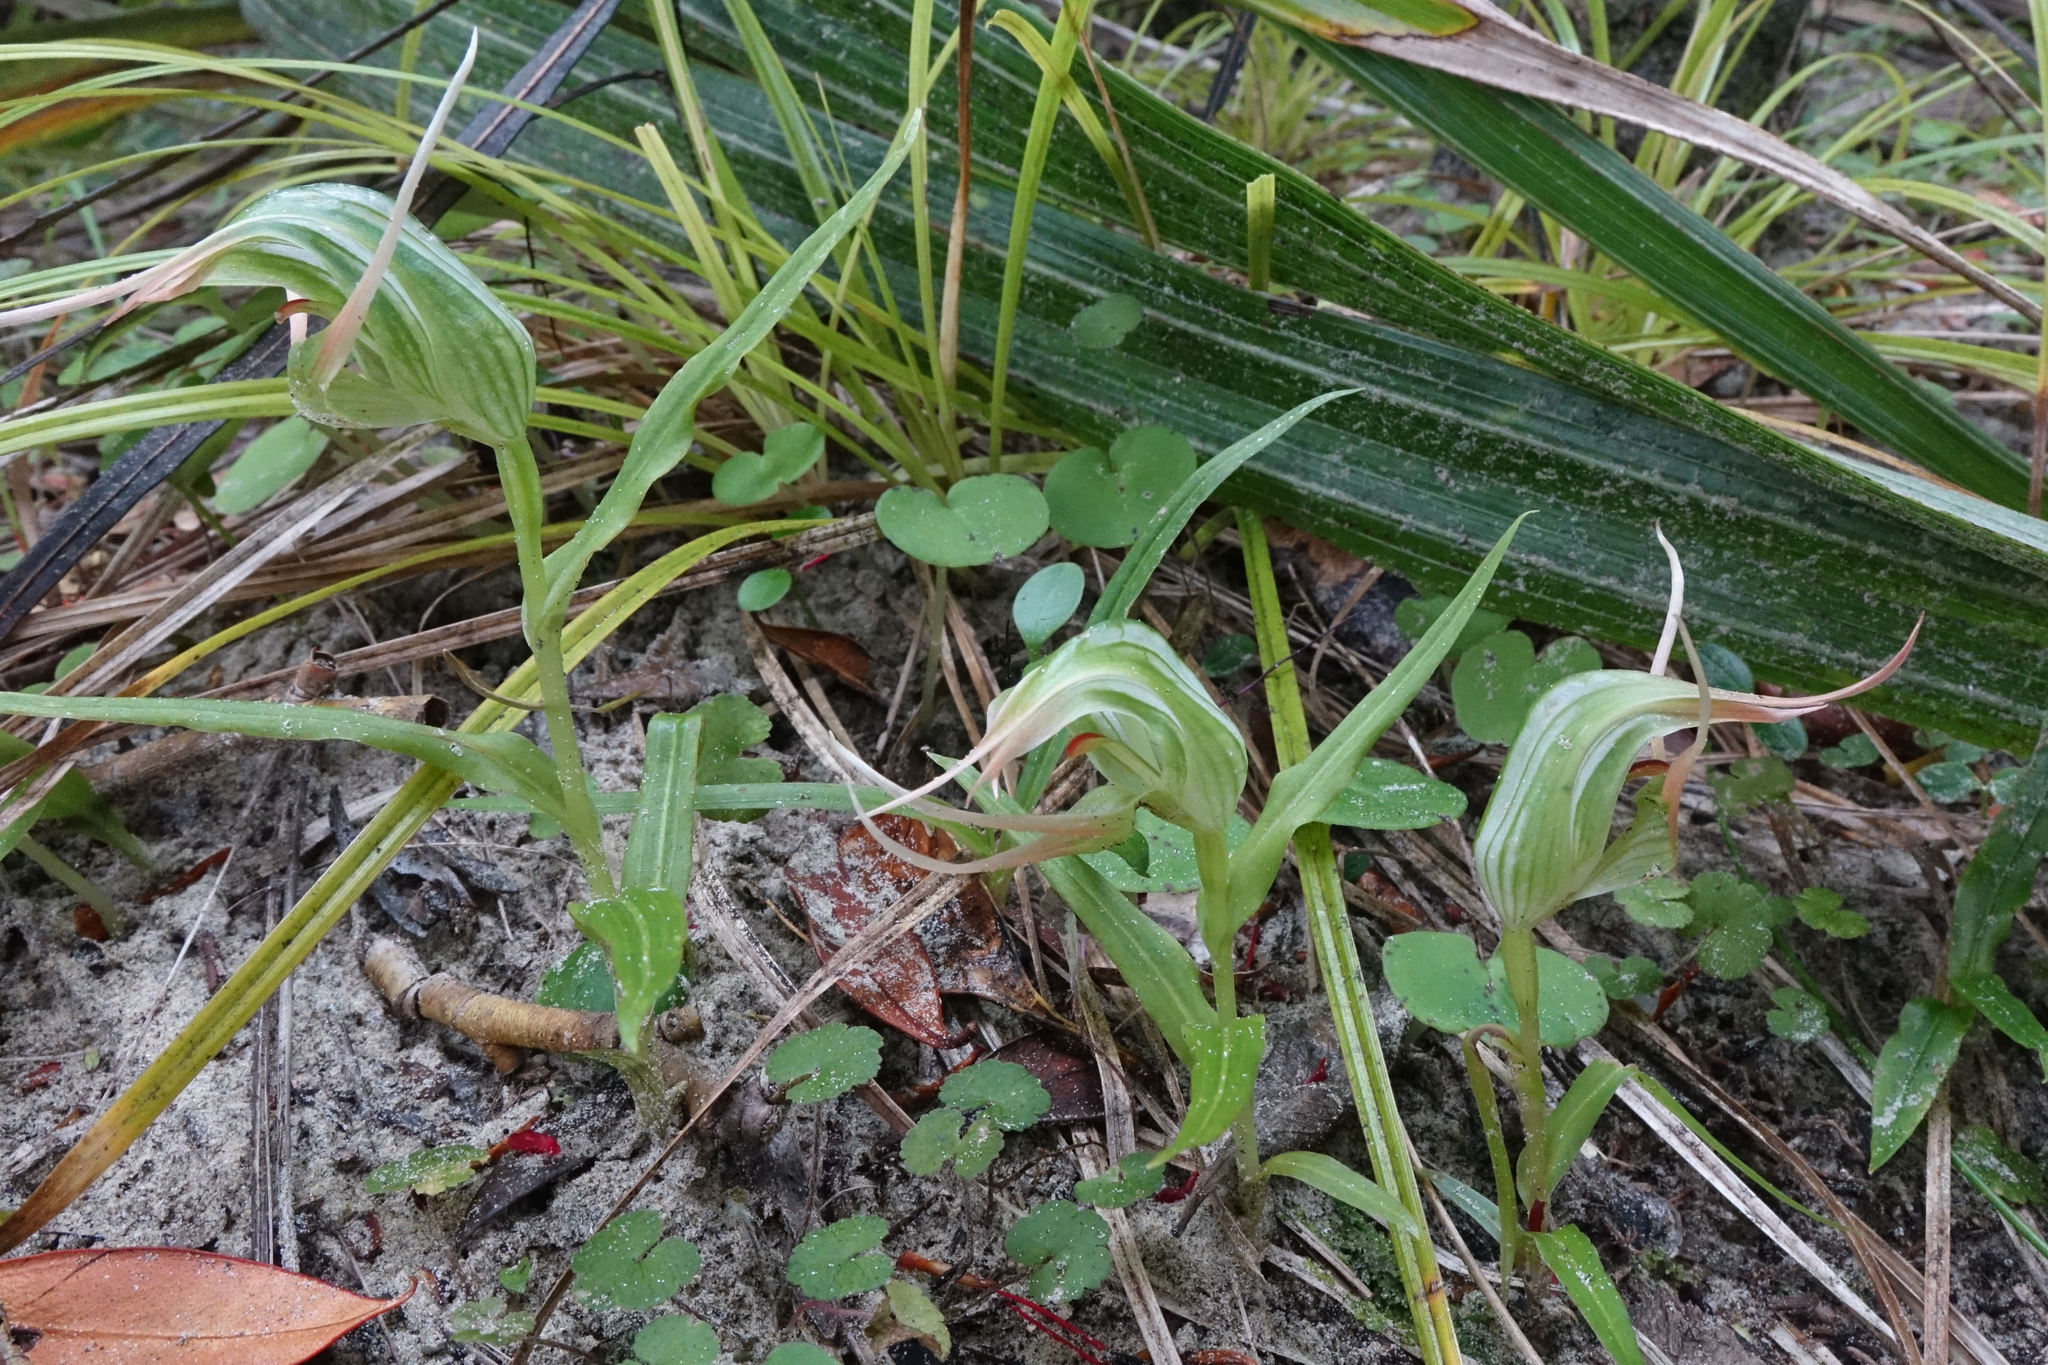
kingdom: Plantae
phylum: Tracheophyta
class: Liliopsida
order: Asparagales
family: Orchidaceae
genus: Pterostylis
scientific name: Pterostylis banksii
